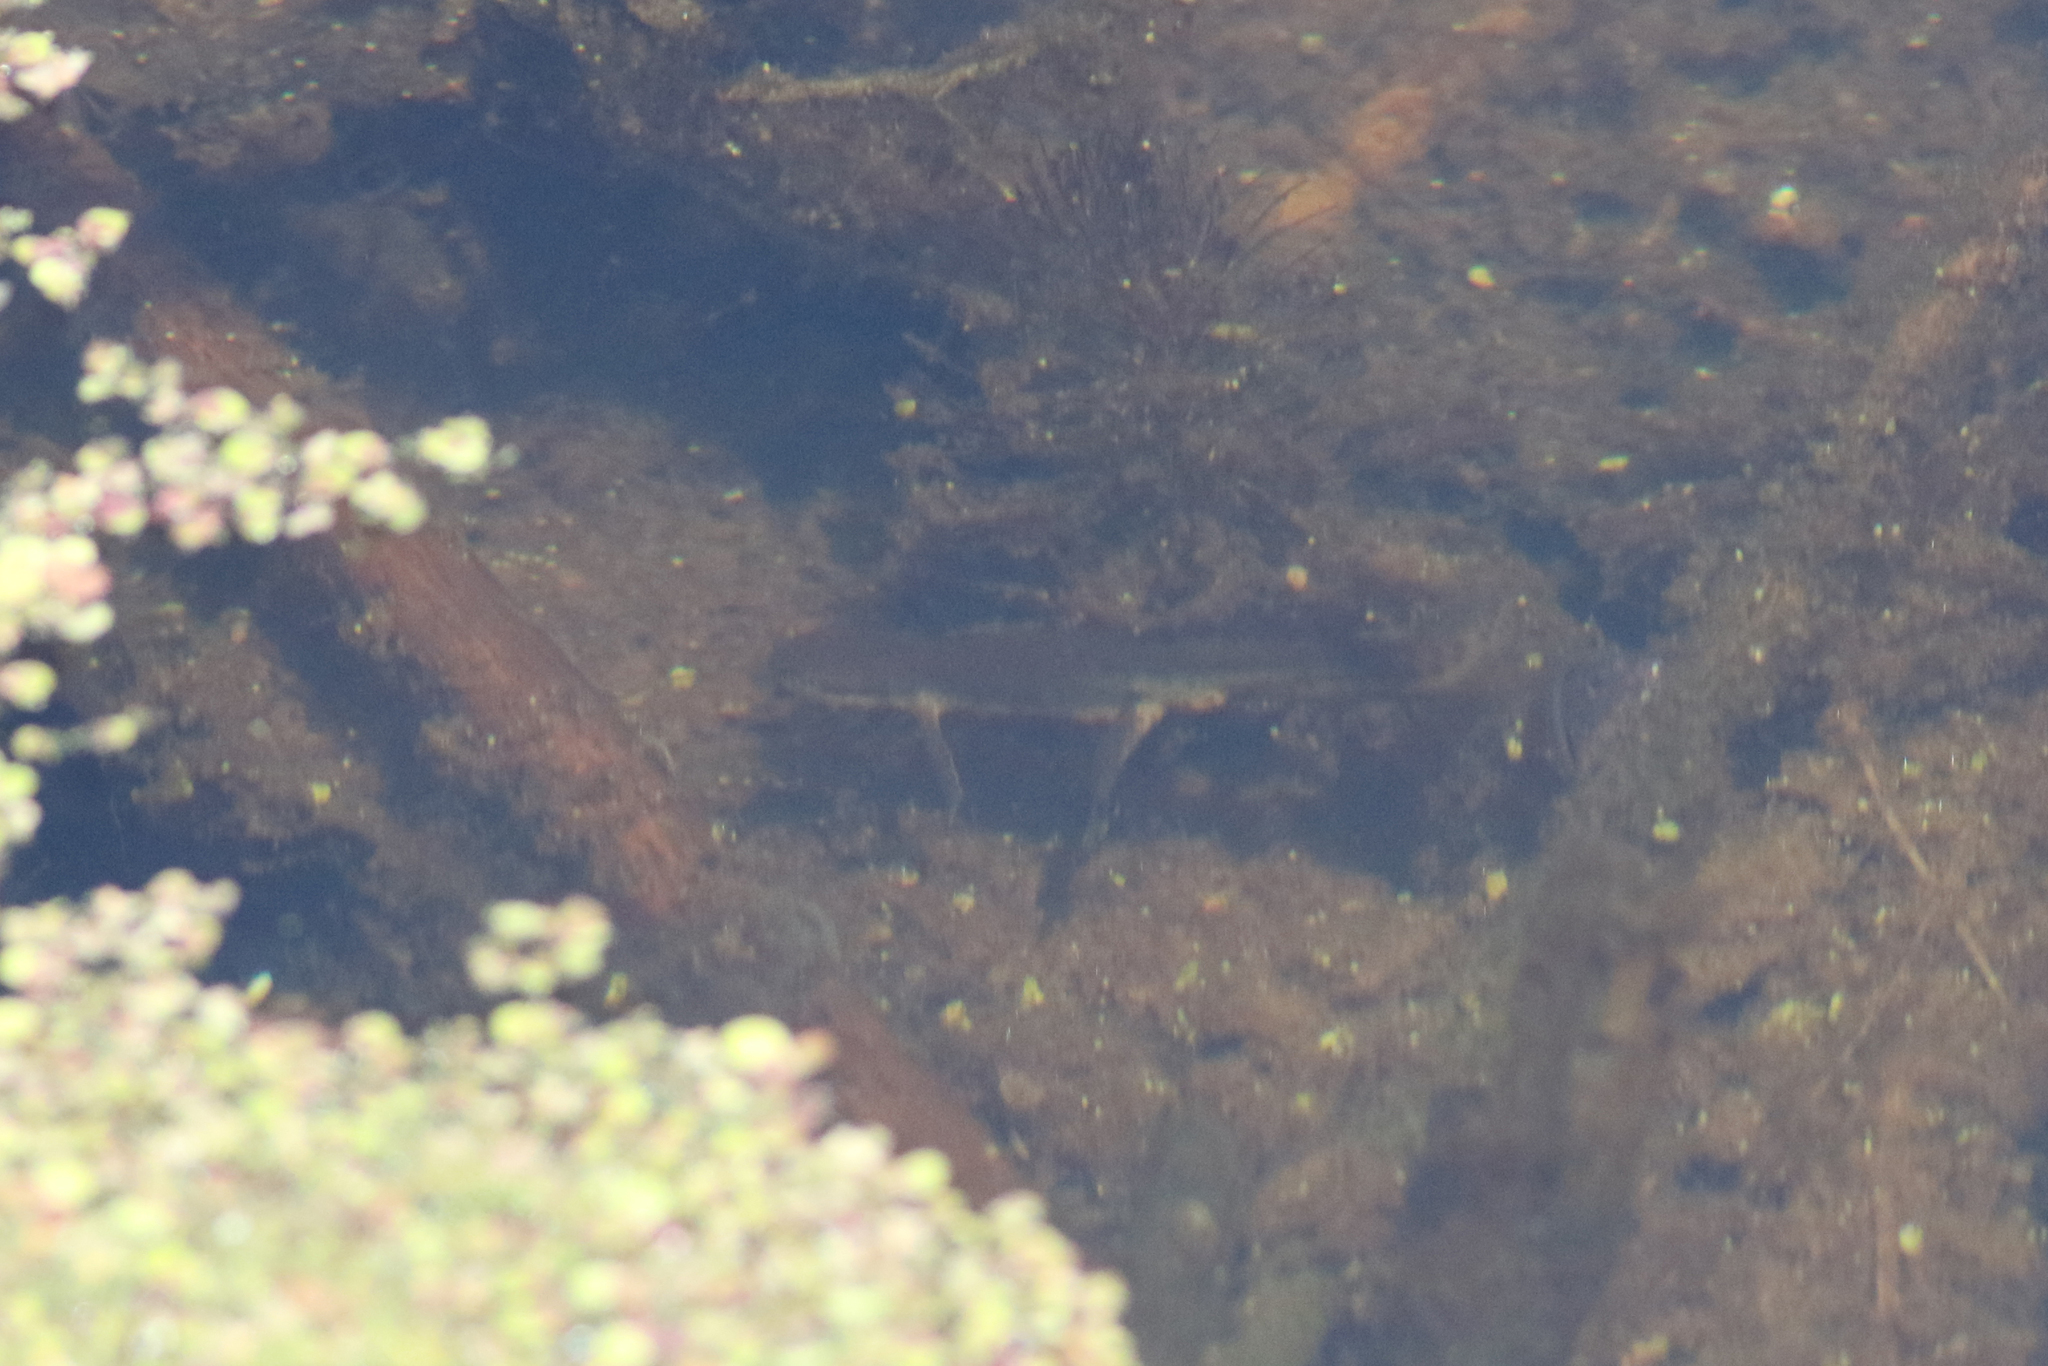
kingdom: Animalia
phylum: Chordata
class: Amphibia
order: Caudata
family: Salamandridae
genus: Notophthalmus
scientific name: Notophthalmus viridescens
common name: Eastern newt
